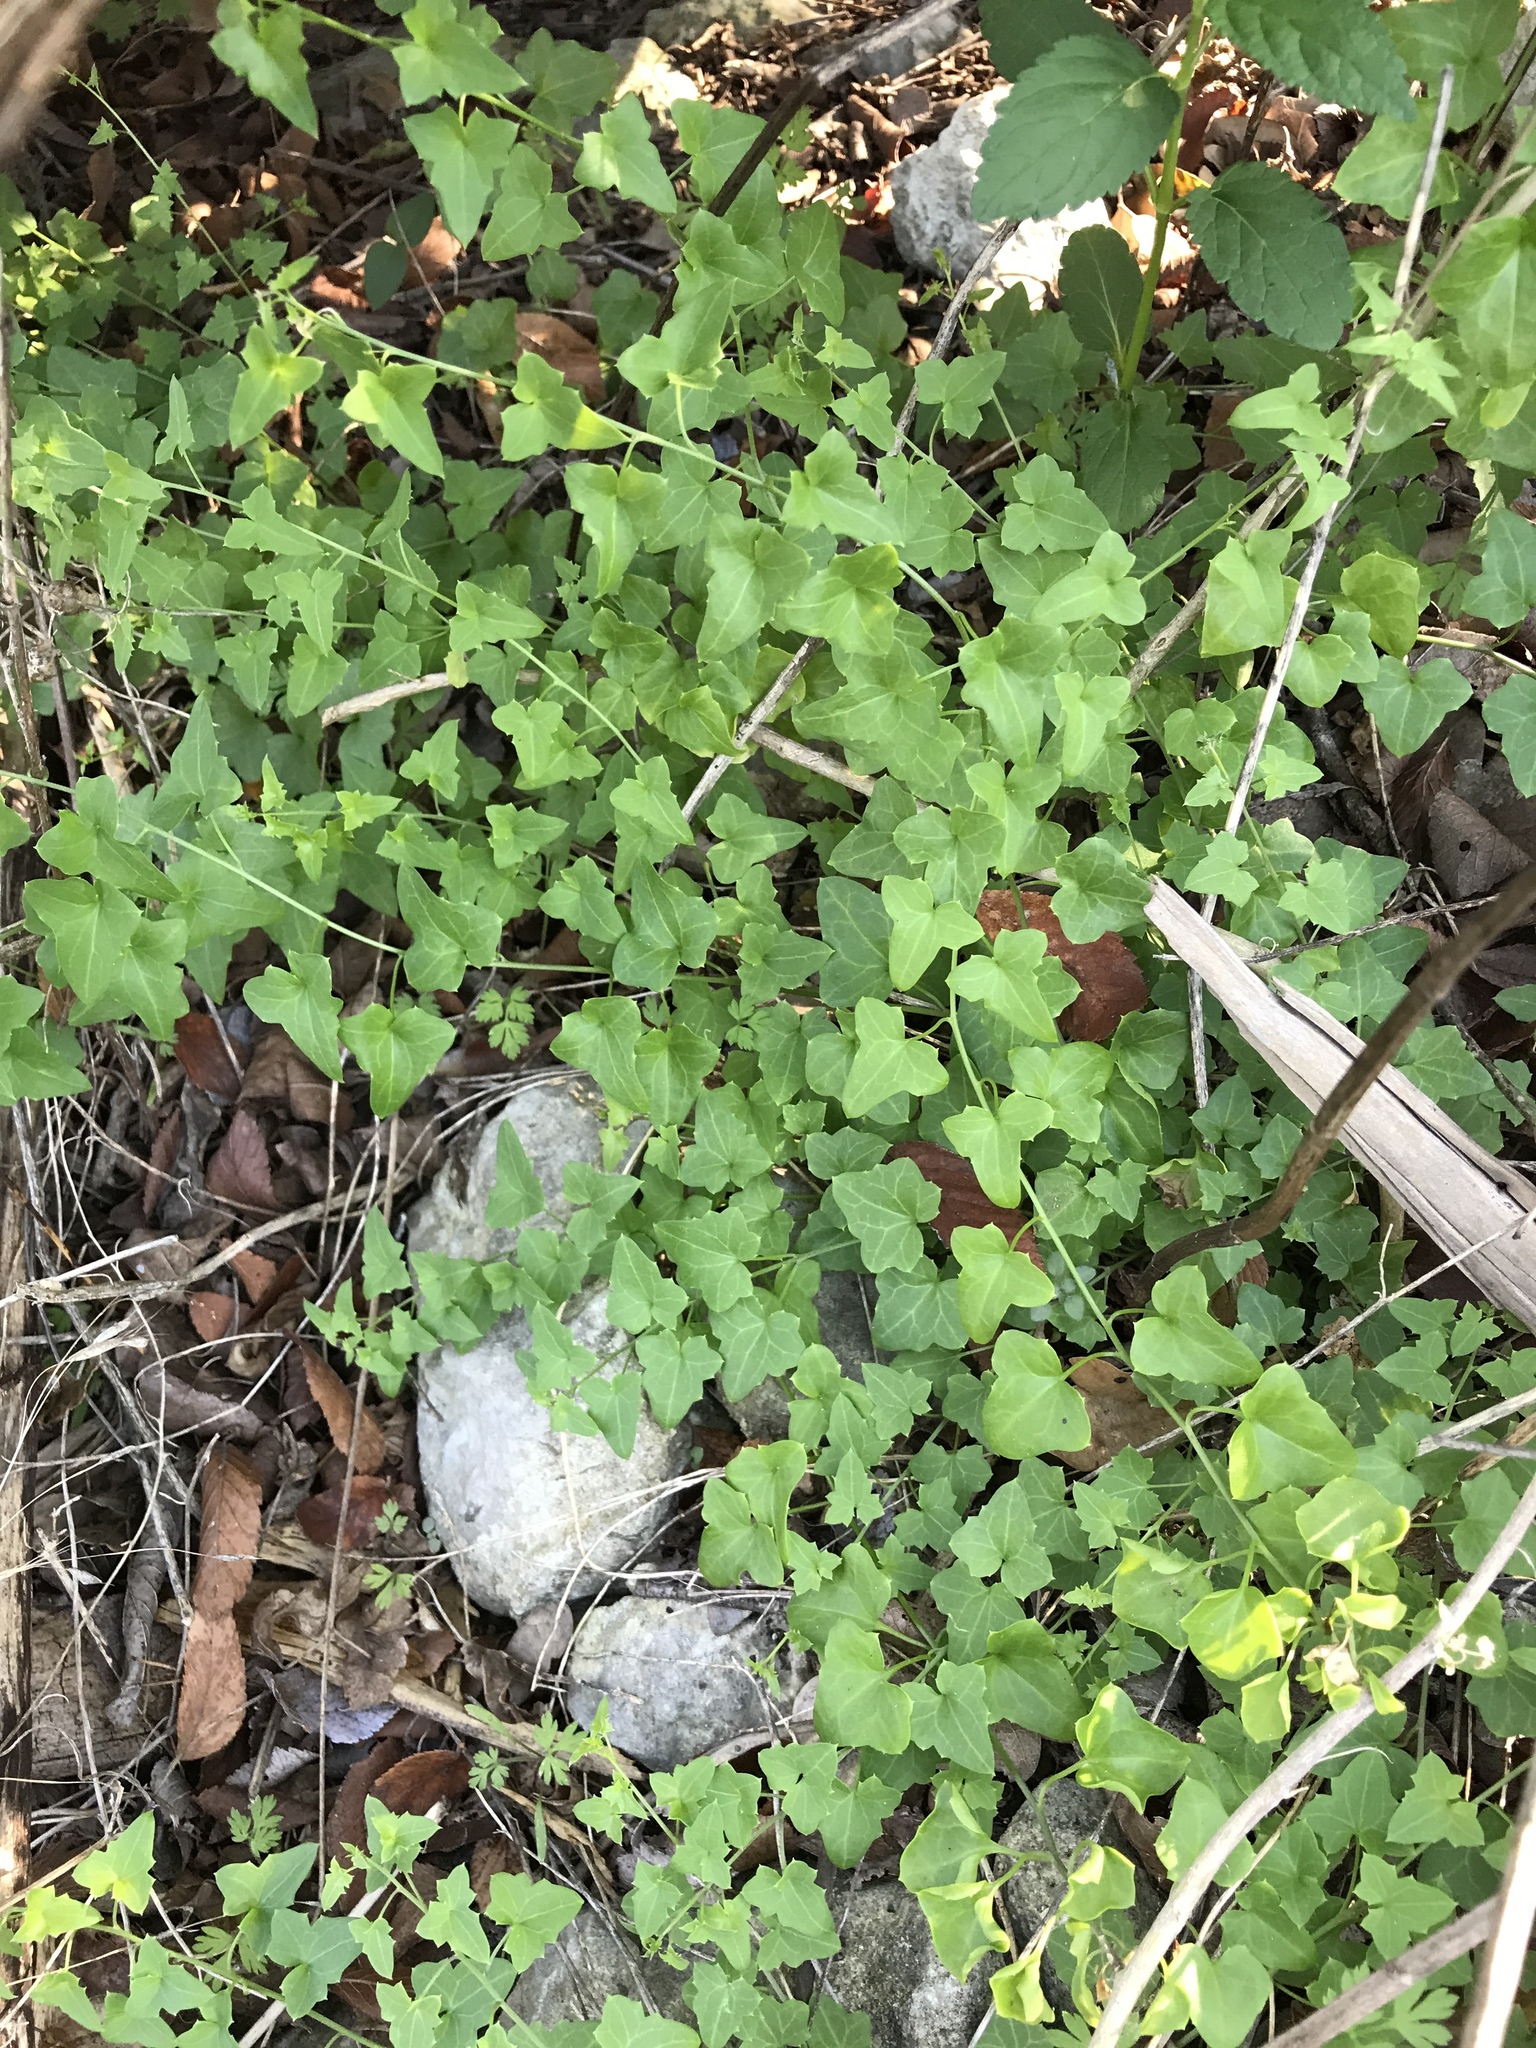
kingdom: Plantae
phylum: Tracheophyta
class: Magnoliopsida
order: Lamiales
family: Plantaginaceae
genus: Maurandella
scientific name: Maurandella antirrhiniflora
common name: Violet twining-snapdragon
